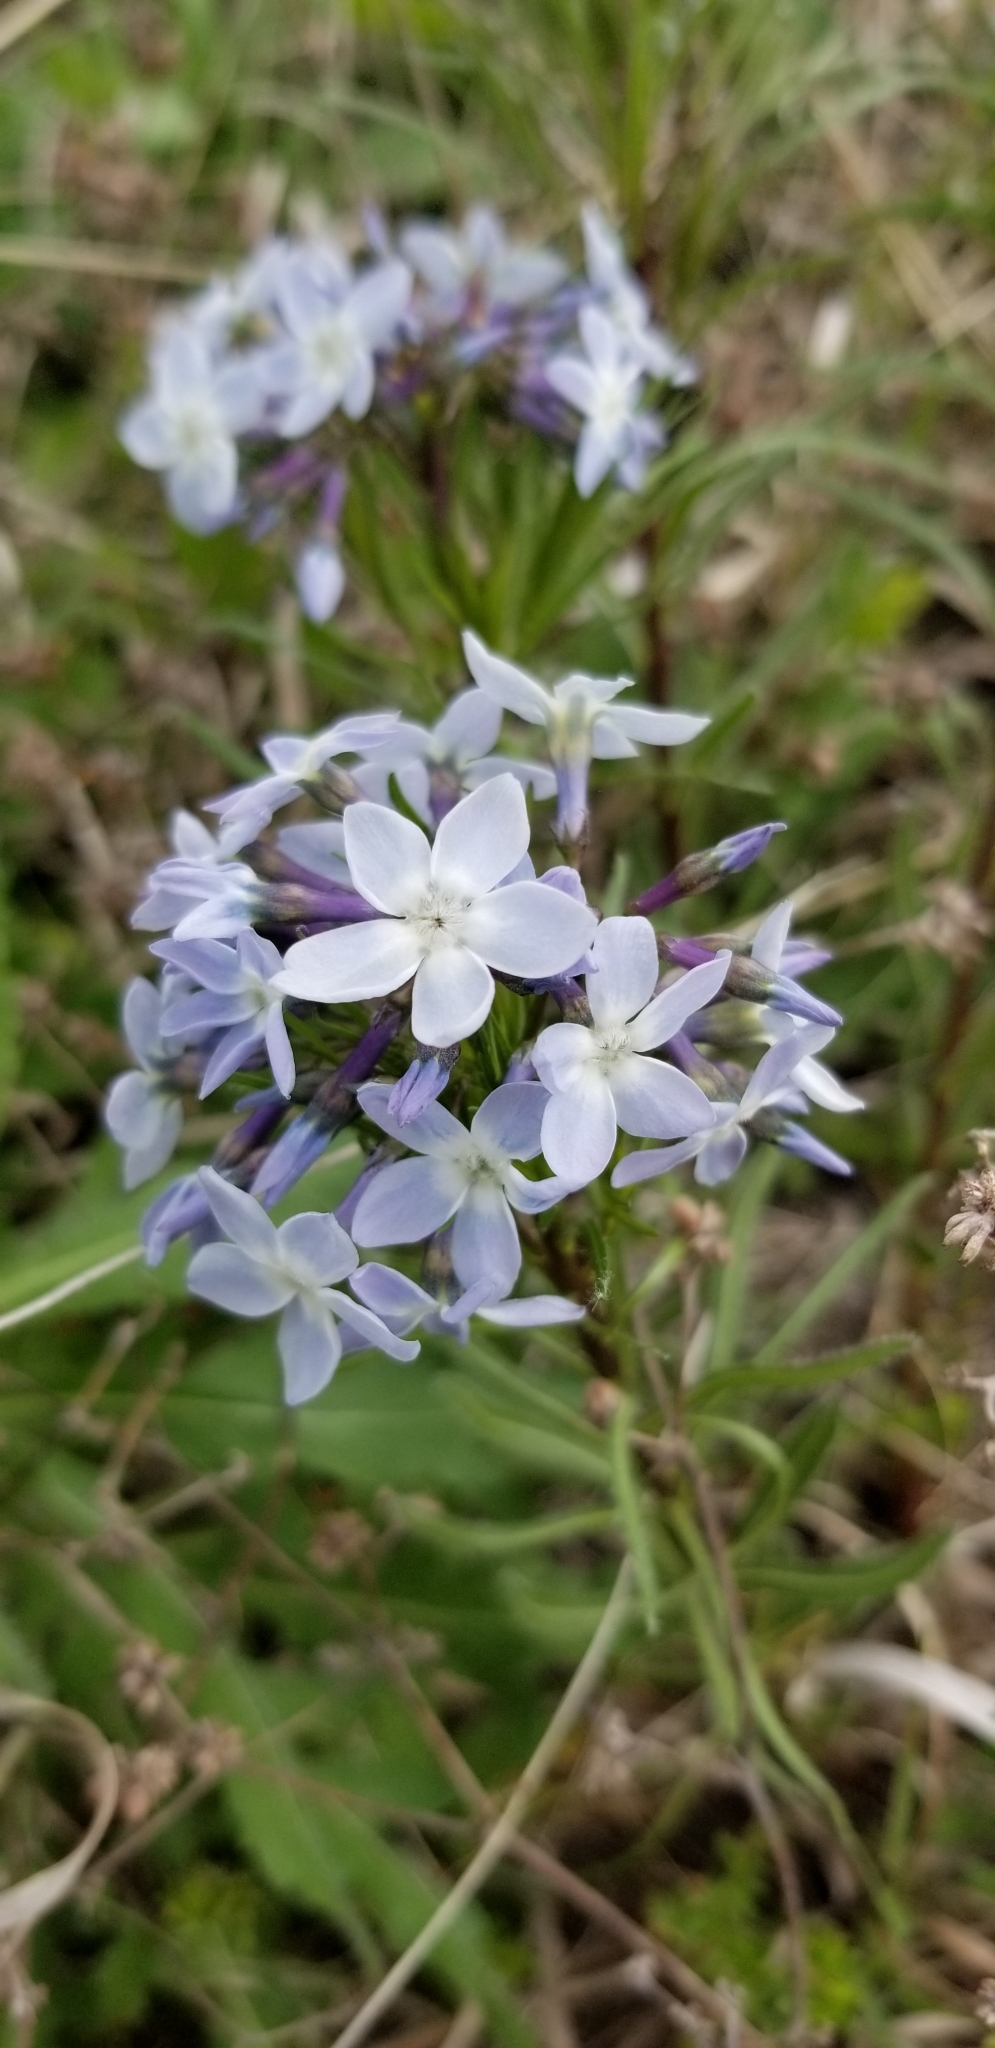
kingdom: Plantae
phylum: Tracheophyta
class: Magnoliopsida
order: Gentianales
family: Apocynaceae
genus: Amsonia
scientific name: Amsonia ciliata
